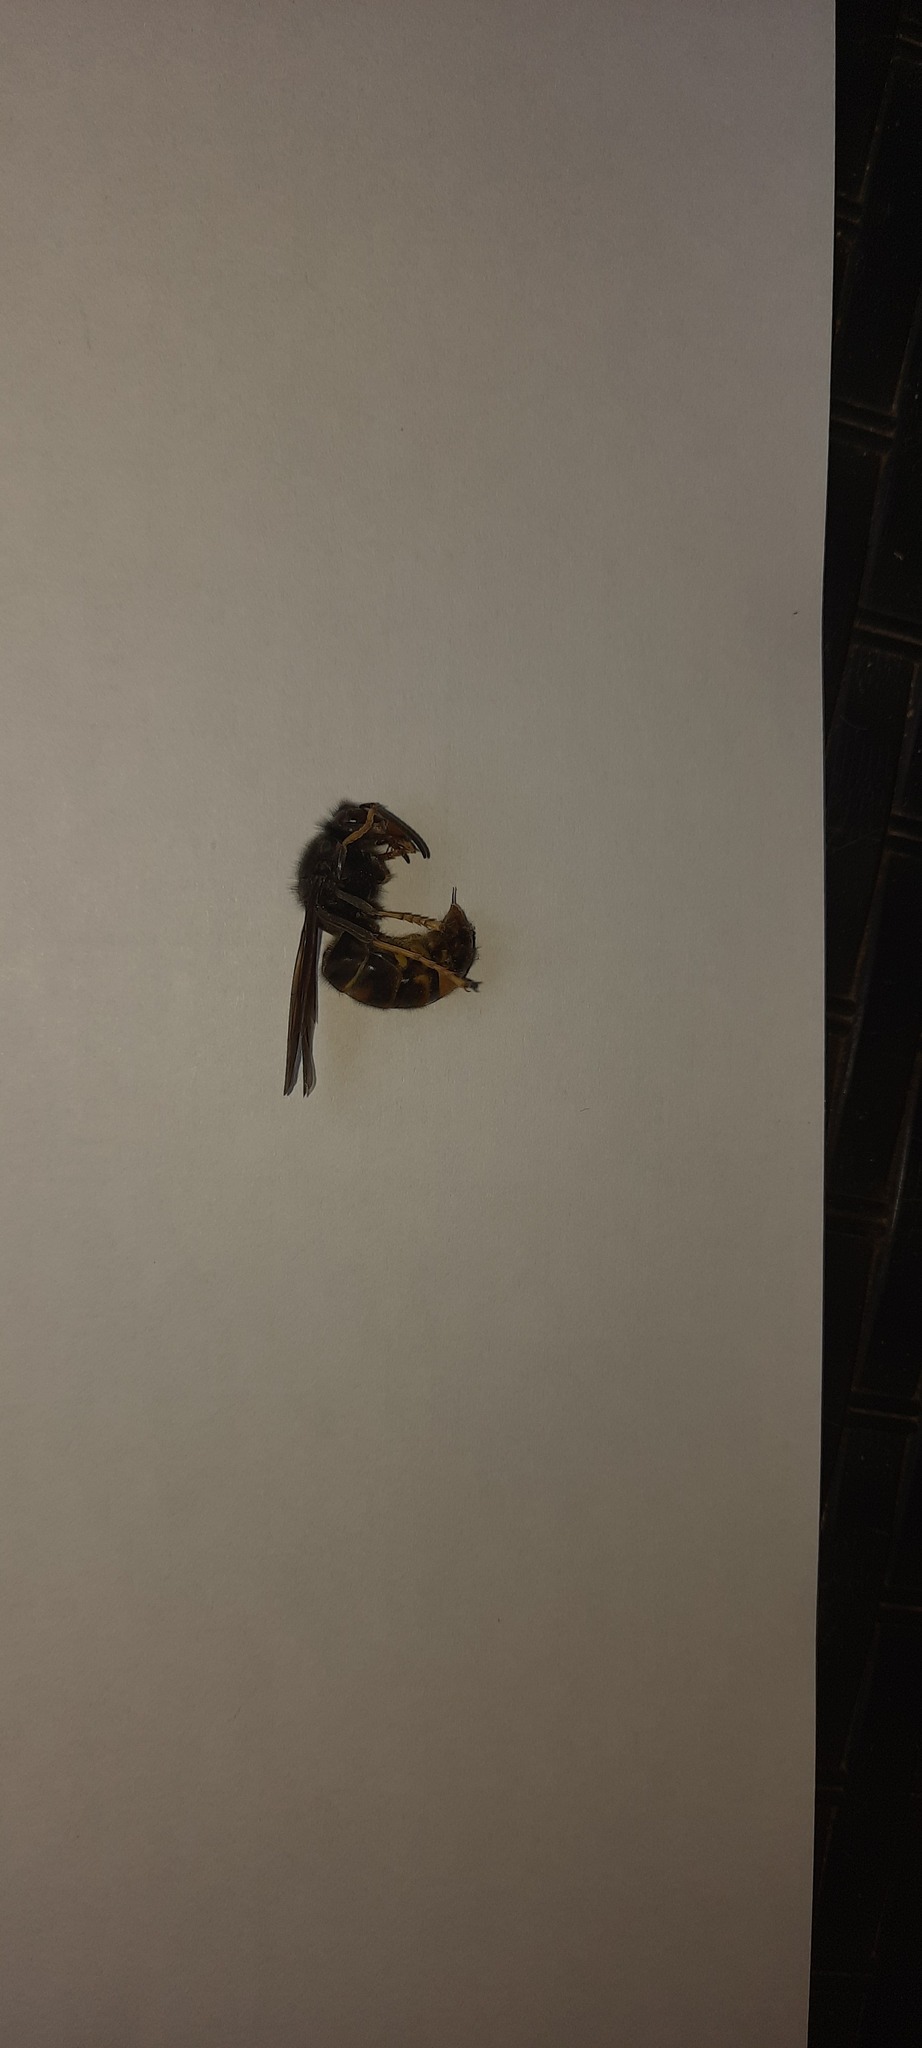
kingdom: Animalia
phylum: Arthropoda
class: Insecta
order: Hymenoptera
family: Vespidae
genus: Vespa
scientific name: Vespa velutina
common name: Asian hornet
